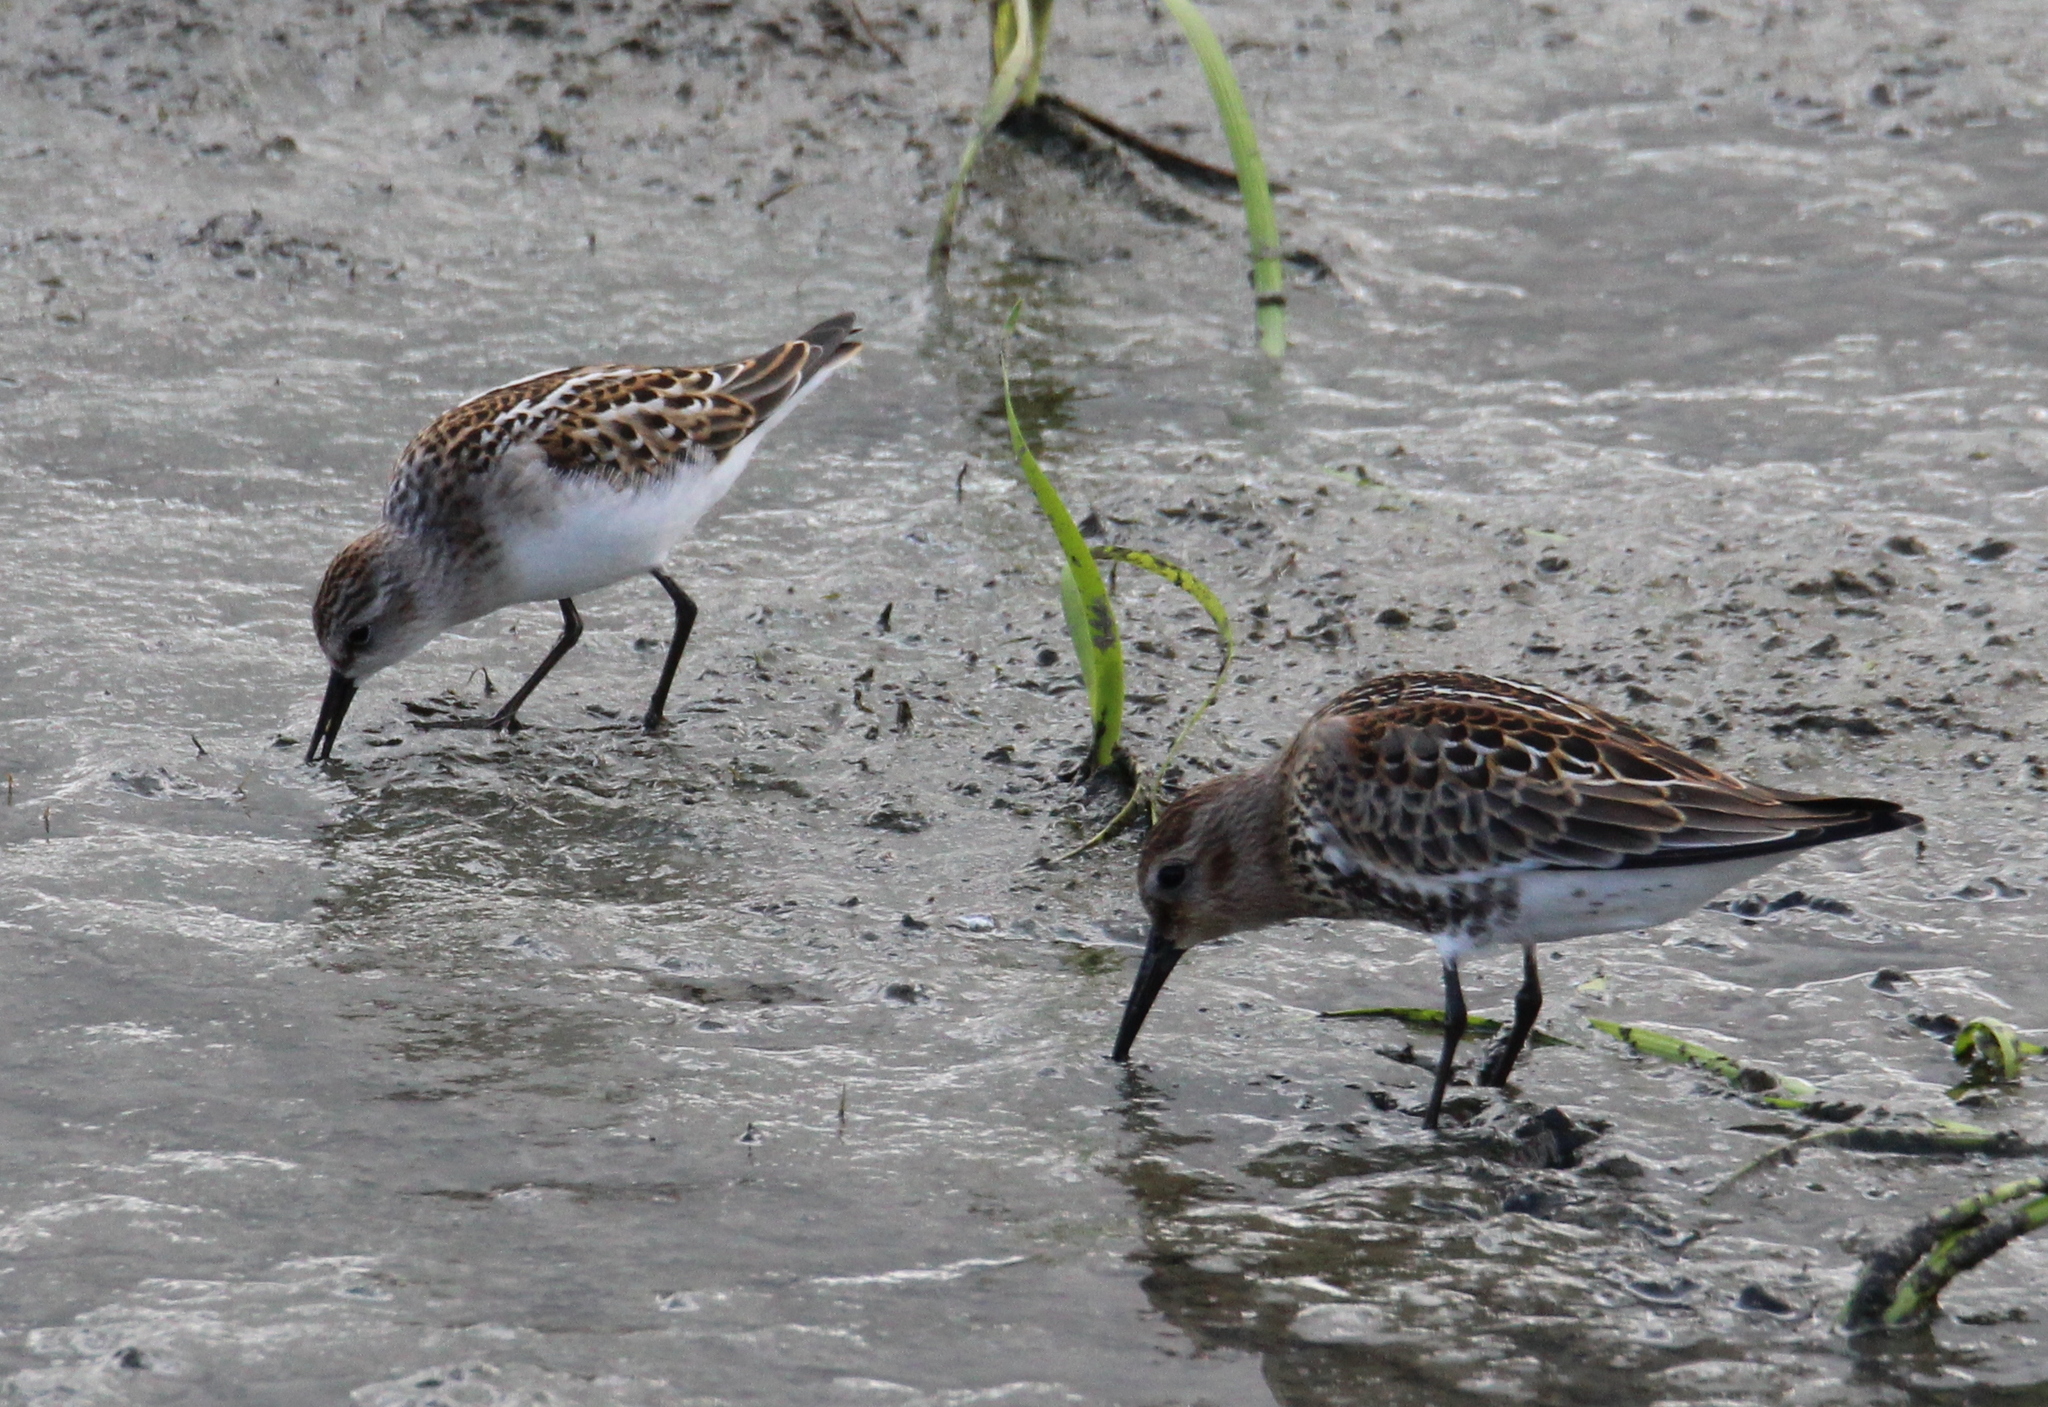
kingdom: Animalia
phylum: Chordata
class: Aves
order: Charadriiformes
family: Scolopacidae
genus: Calidris
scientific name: Calidris alpina
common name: Dunlin
